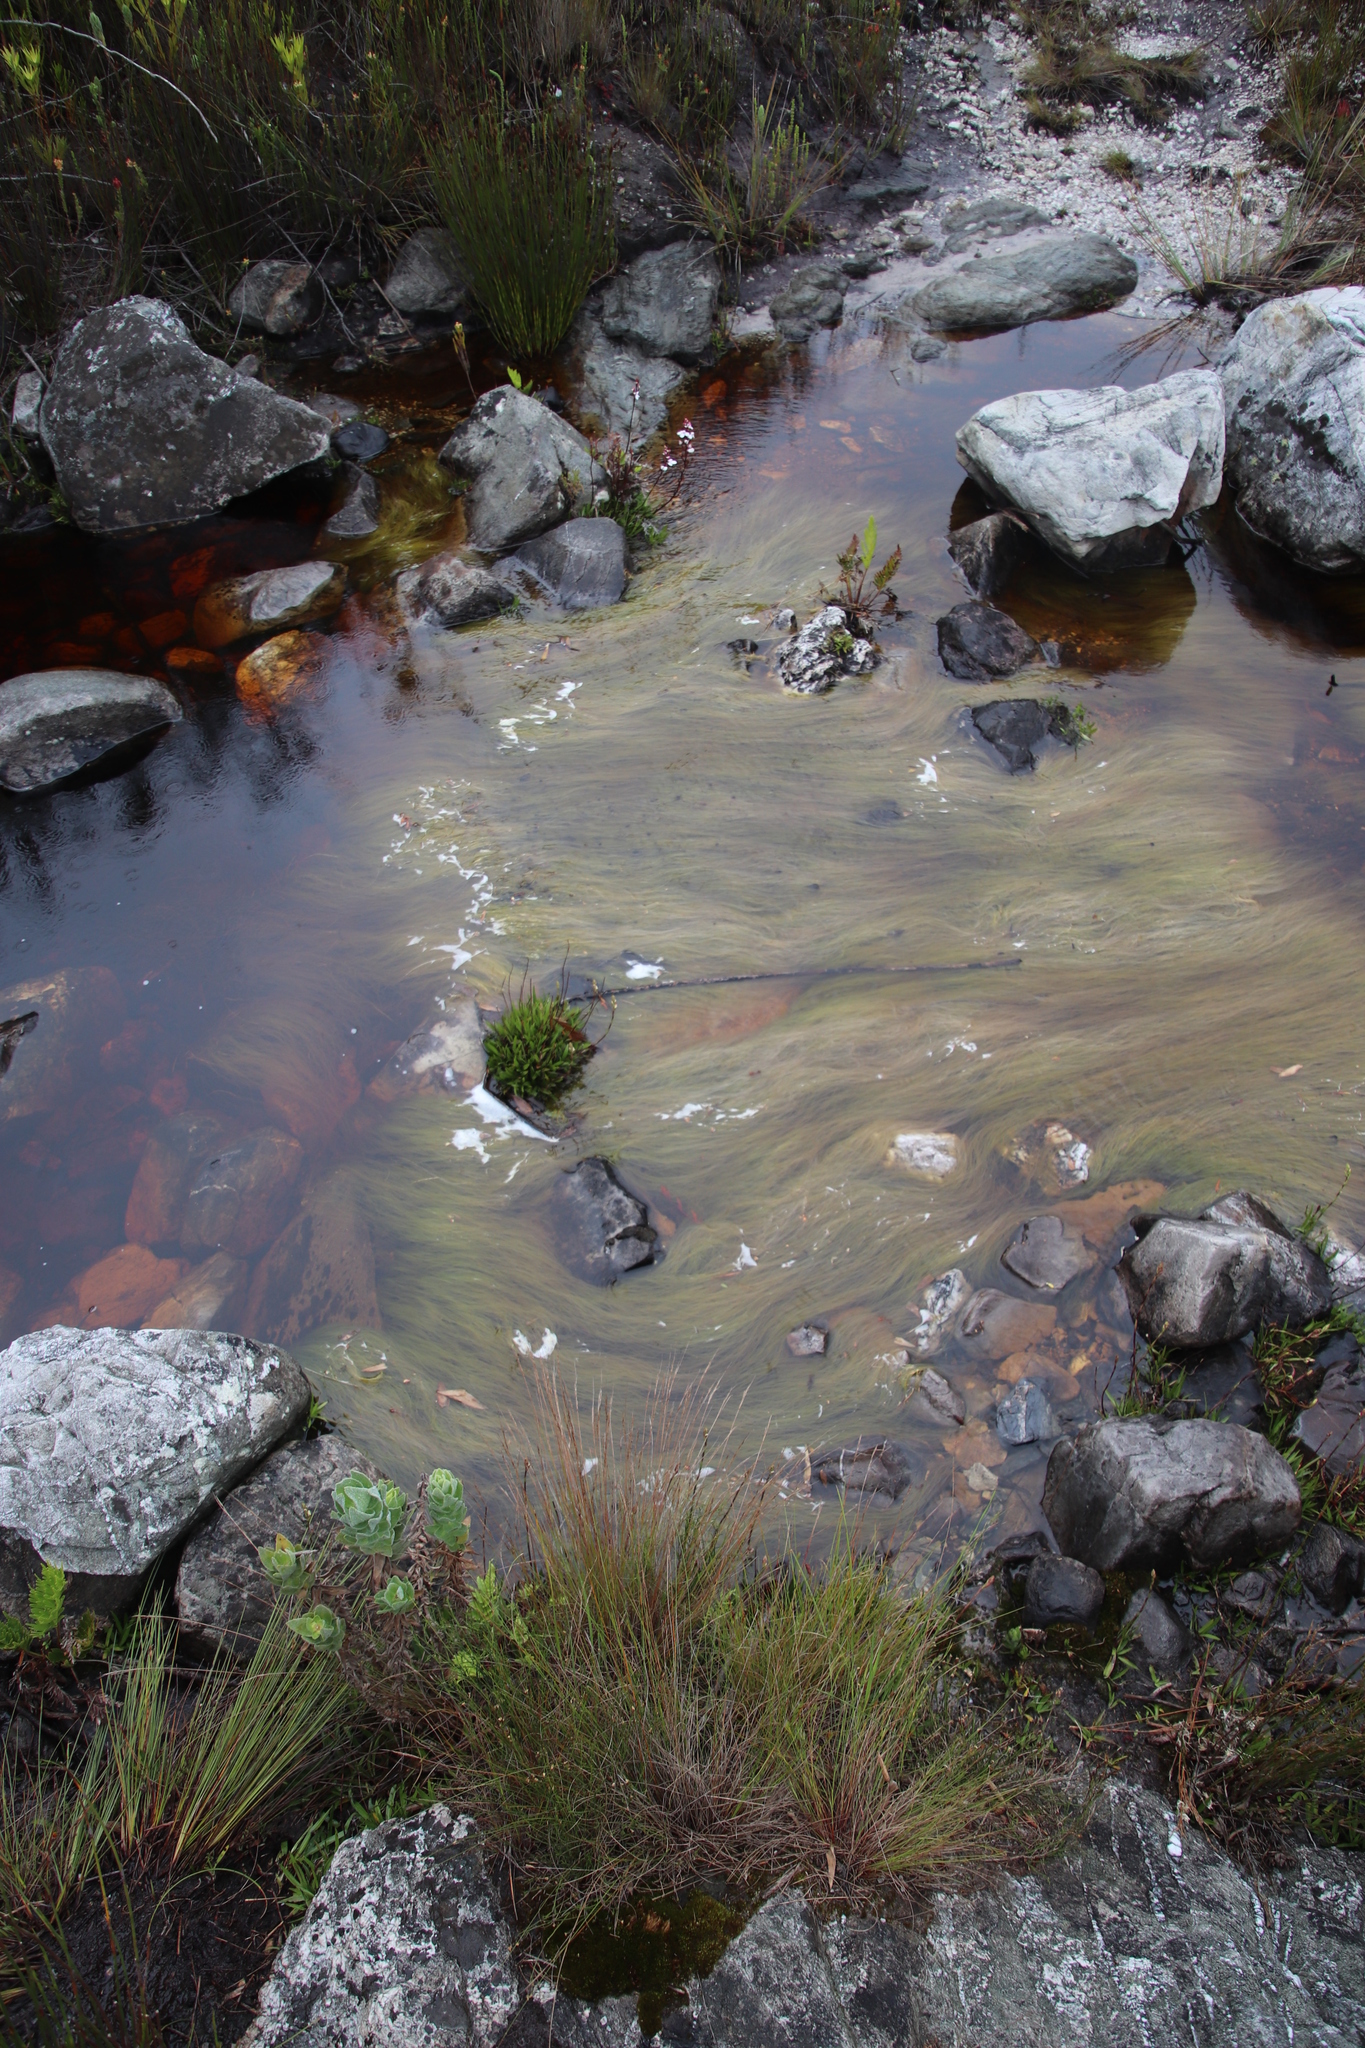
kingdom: Plantae
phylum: Tracheophyta
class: Liliopsida
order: Poales
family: Cyperaceae
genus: Isolepis
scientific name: Isolepis digitata
